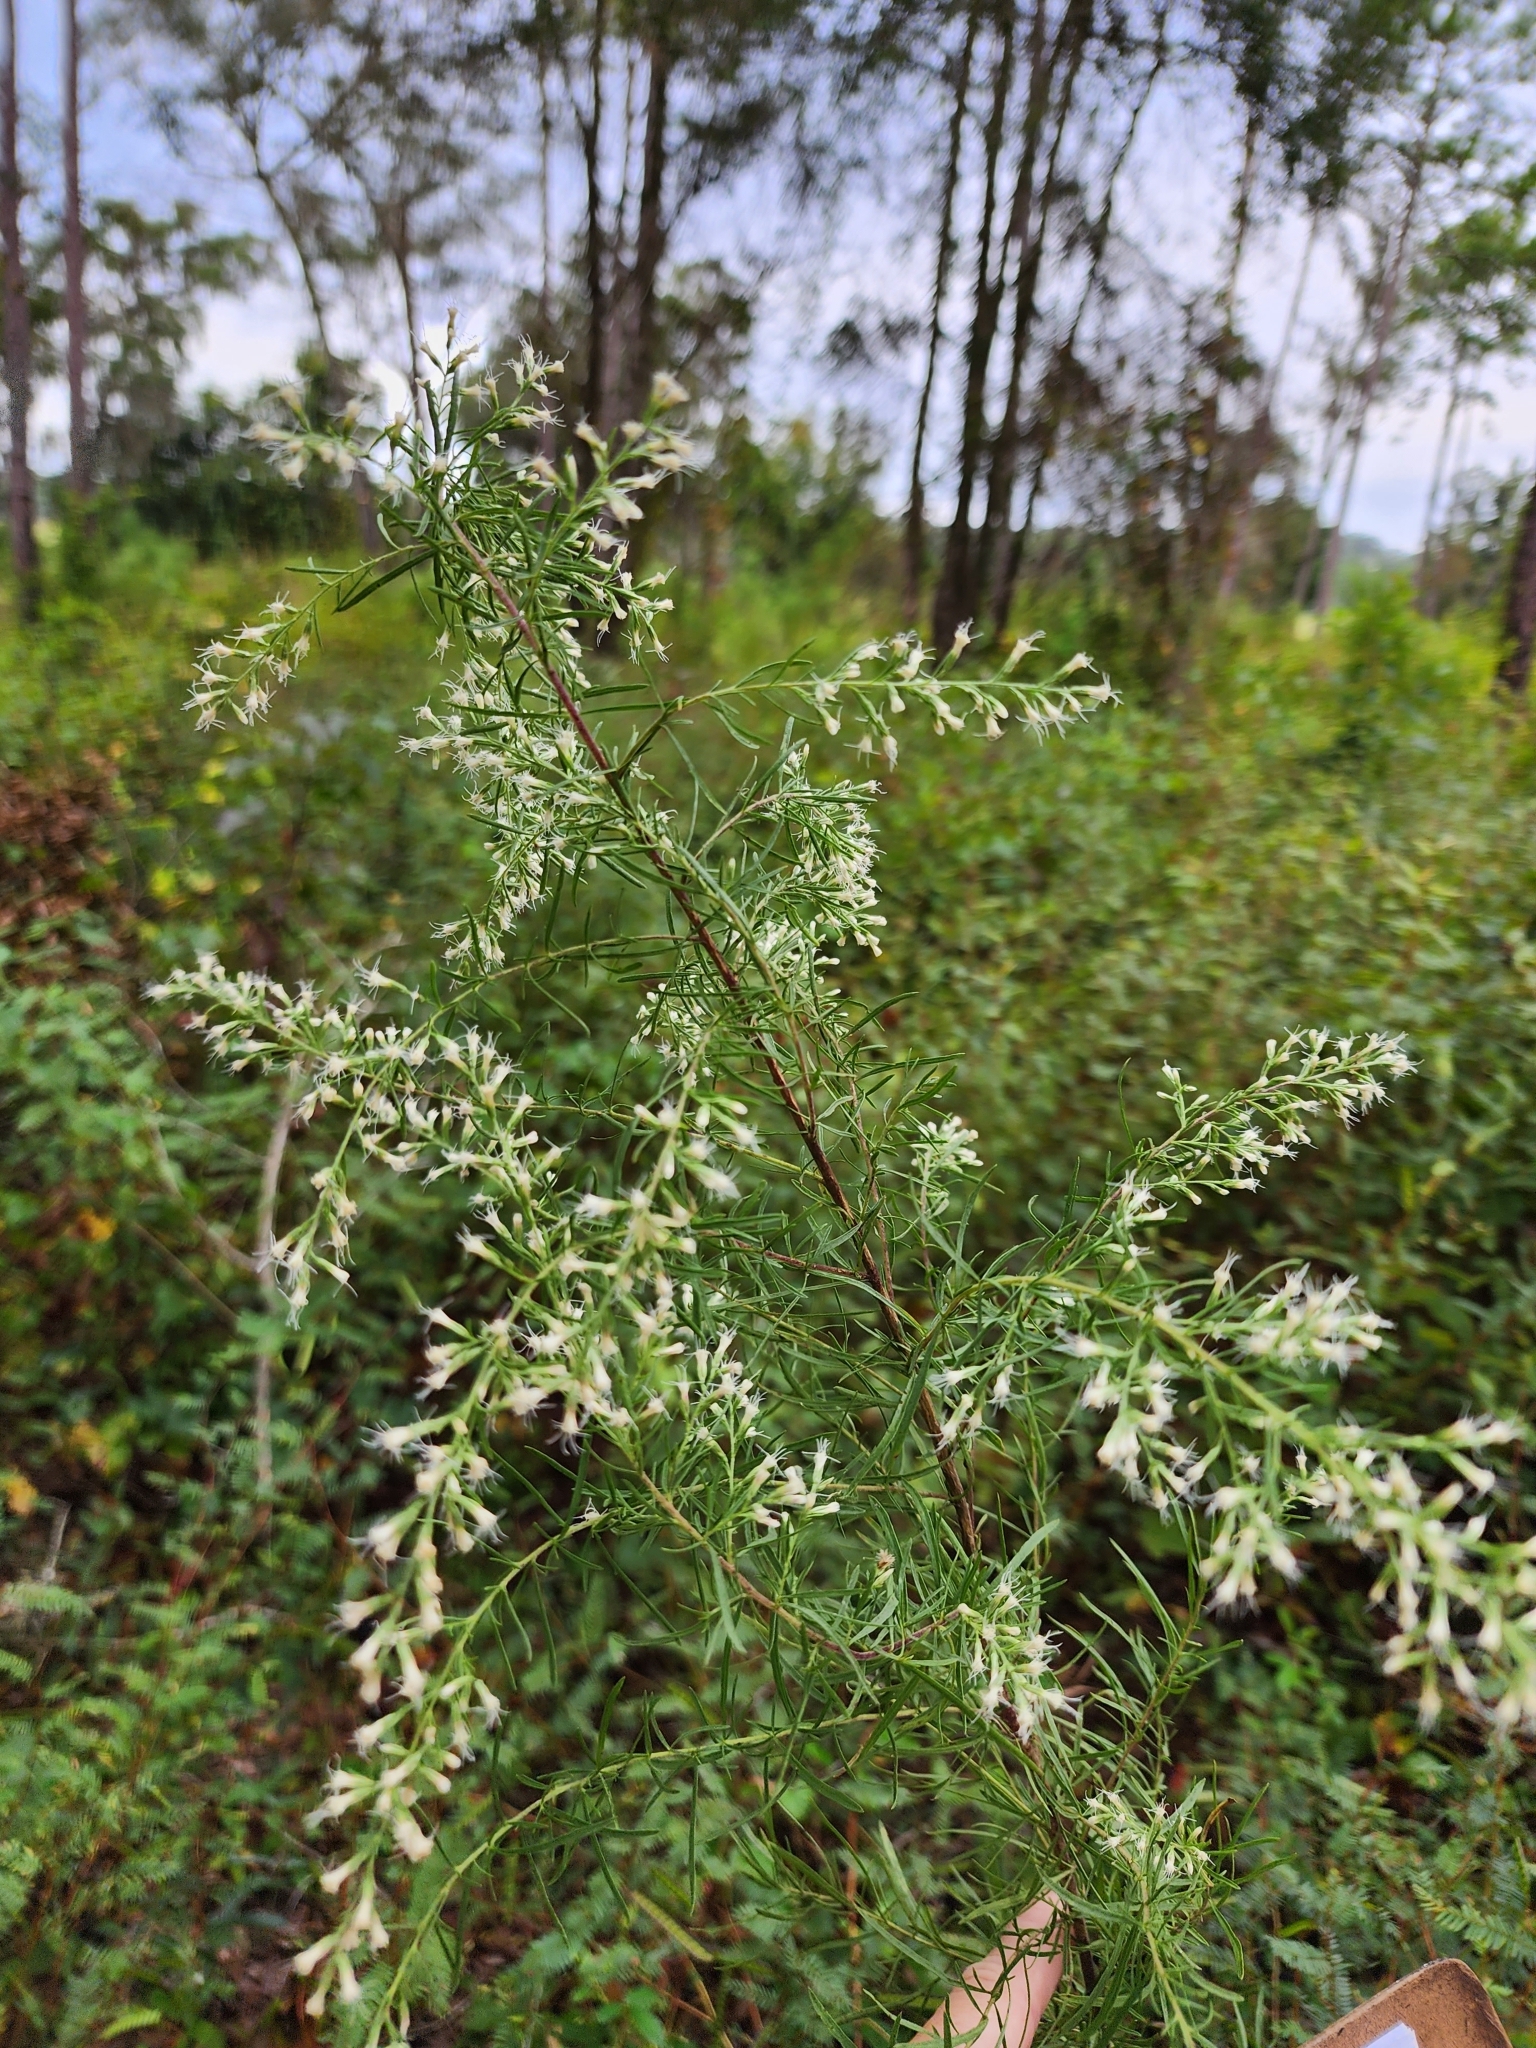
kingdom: Plantae
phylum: Tracheophyta
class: Magnoliopsida
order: Asterales
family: Asteraceae
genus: Eupatorium
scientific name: Eupatorium compositifolium
